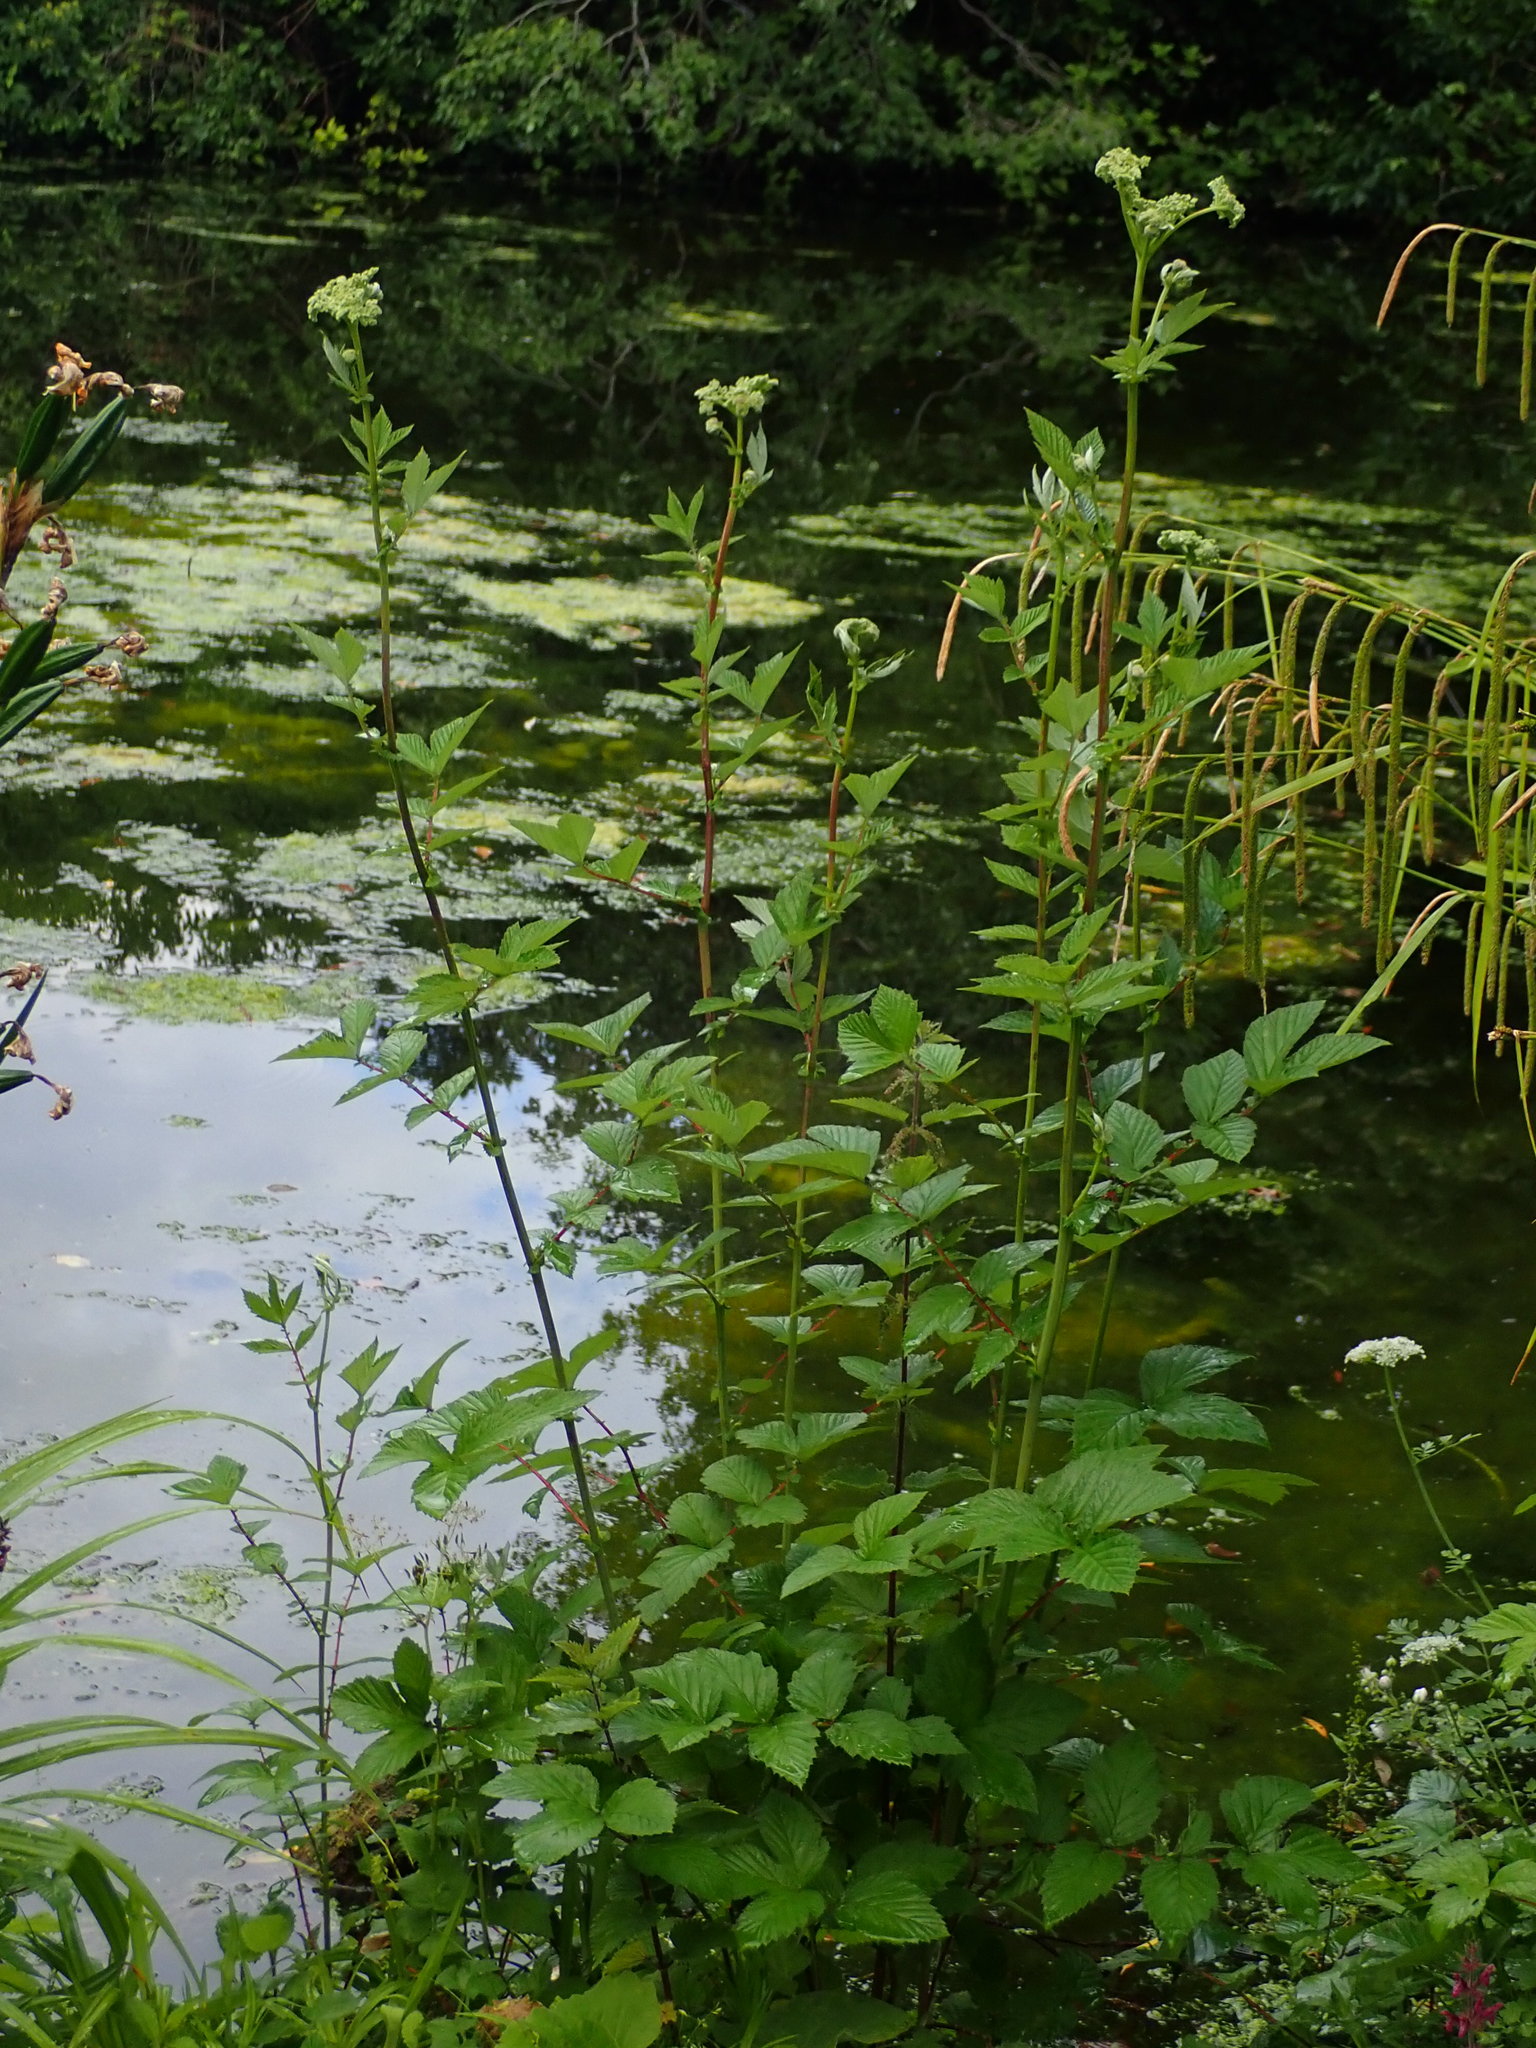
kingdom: Plantae
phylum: Tracheophyta
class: Magnoliopsida
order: Rosales
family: Rosaceae
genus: Filipendula
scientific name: Filipendula ulmaria
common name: Meadowsweet
